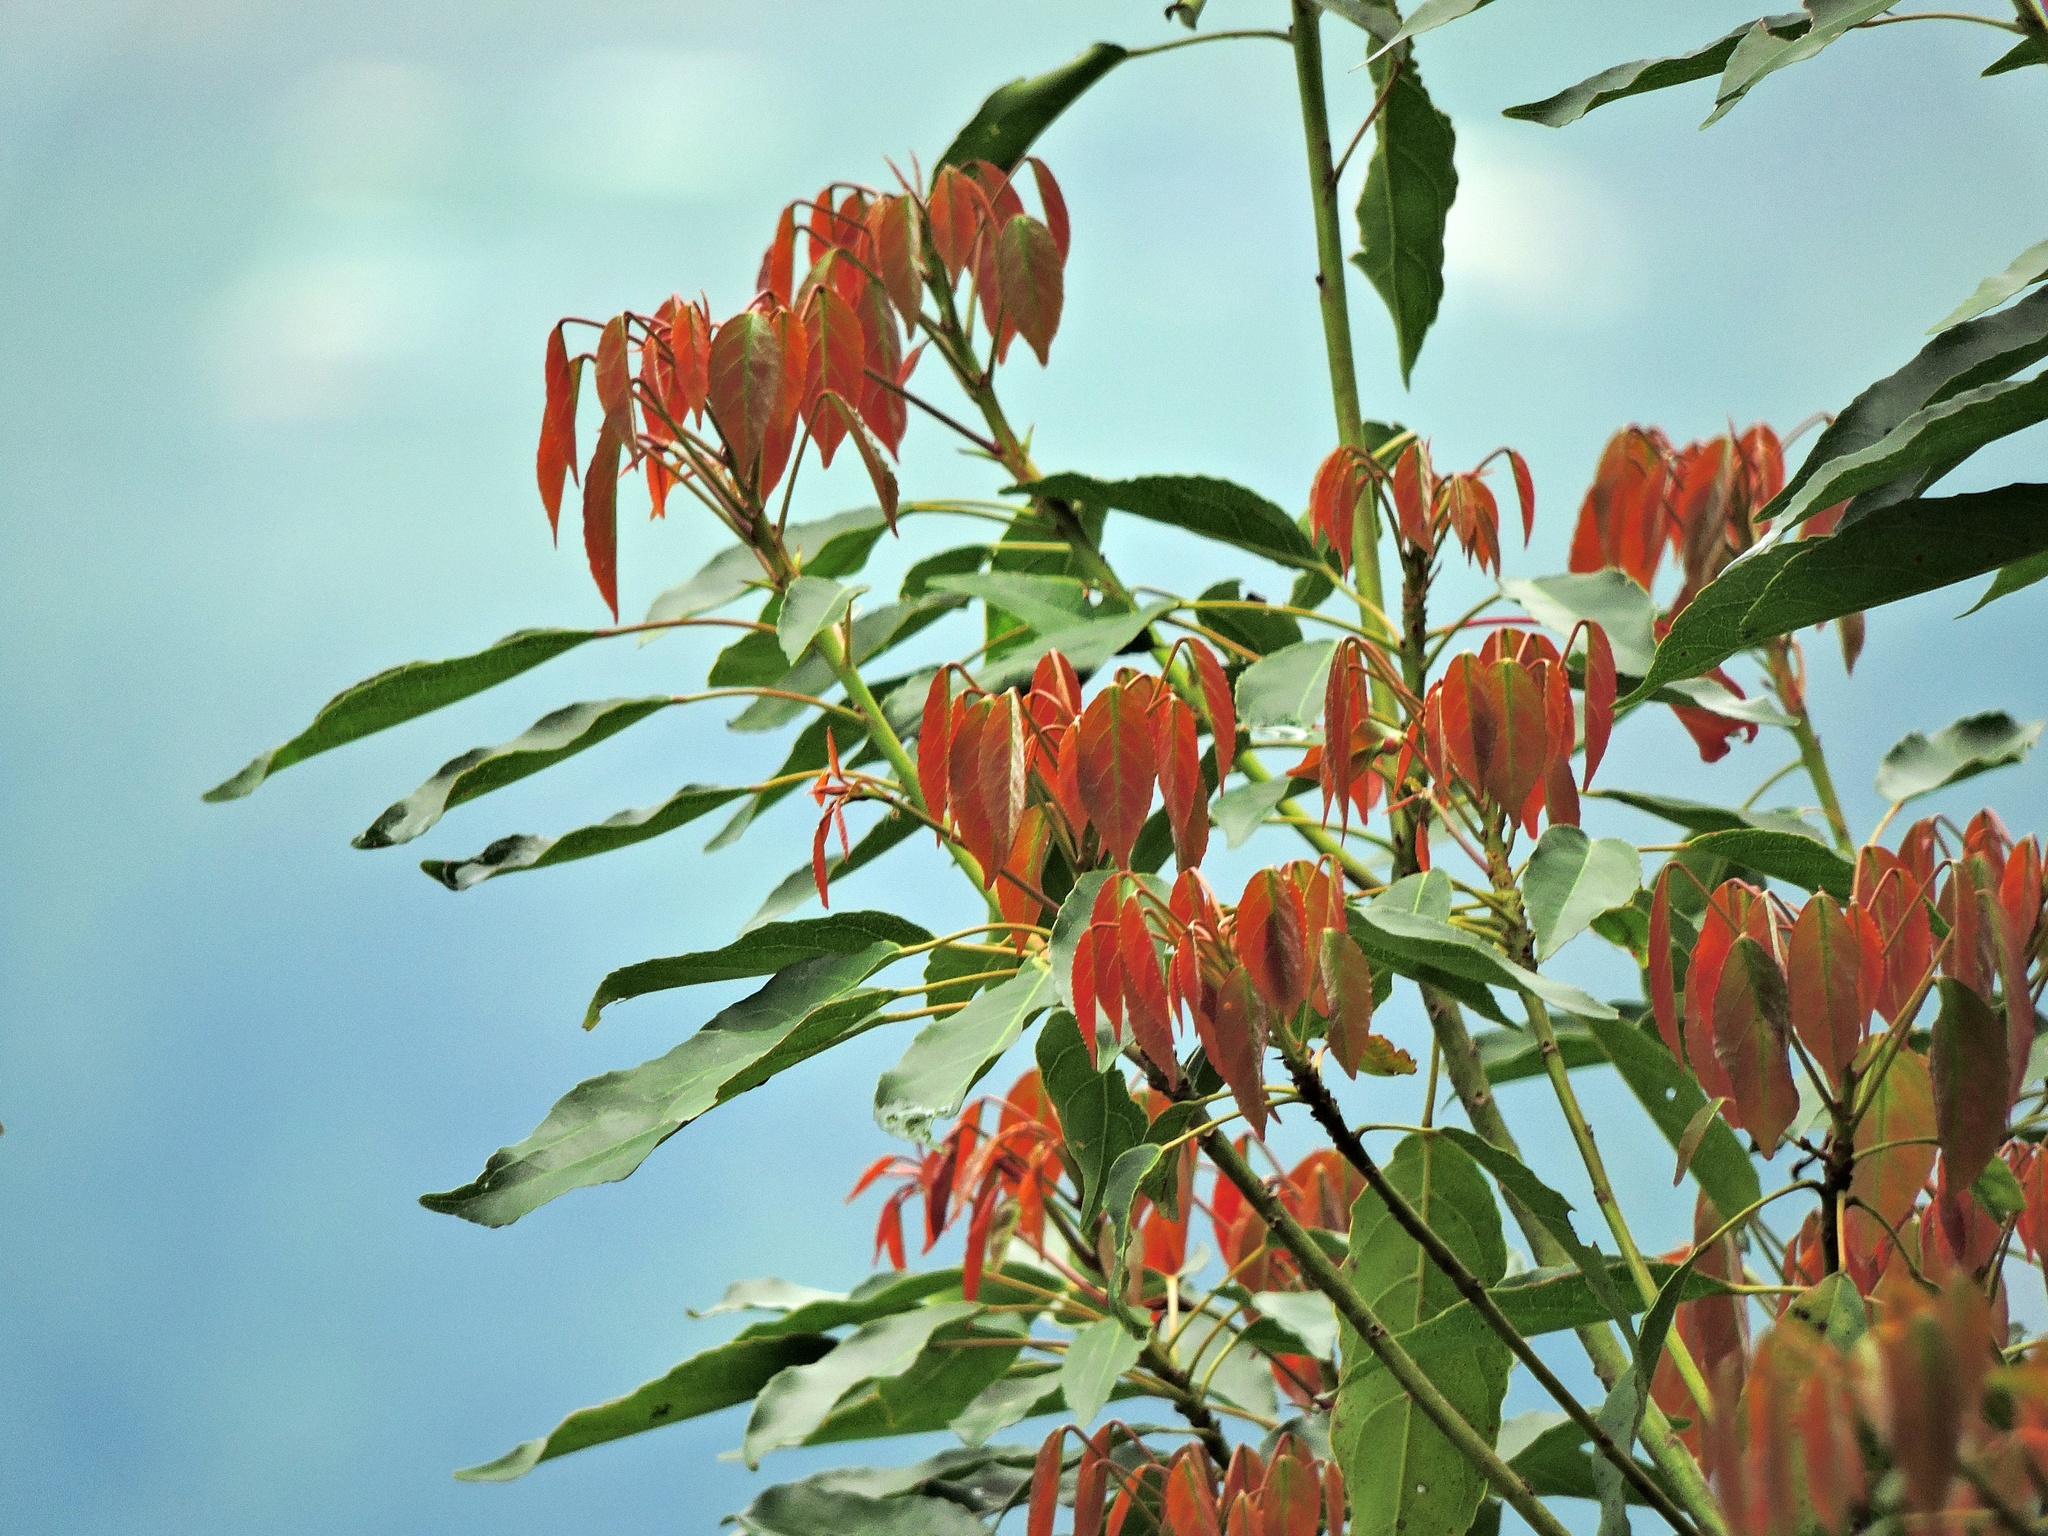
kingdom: Plantae
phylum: Tracheophyta
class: Magnoliopsida
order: Oxalidales
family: Elaeocarpaceae
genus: Elaeocarpus
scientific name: Elaeocarpus japonicus
